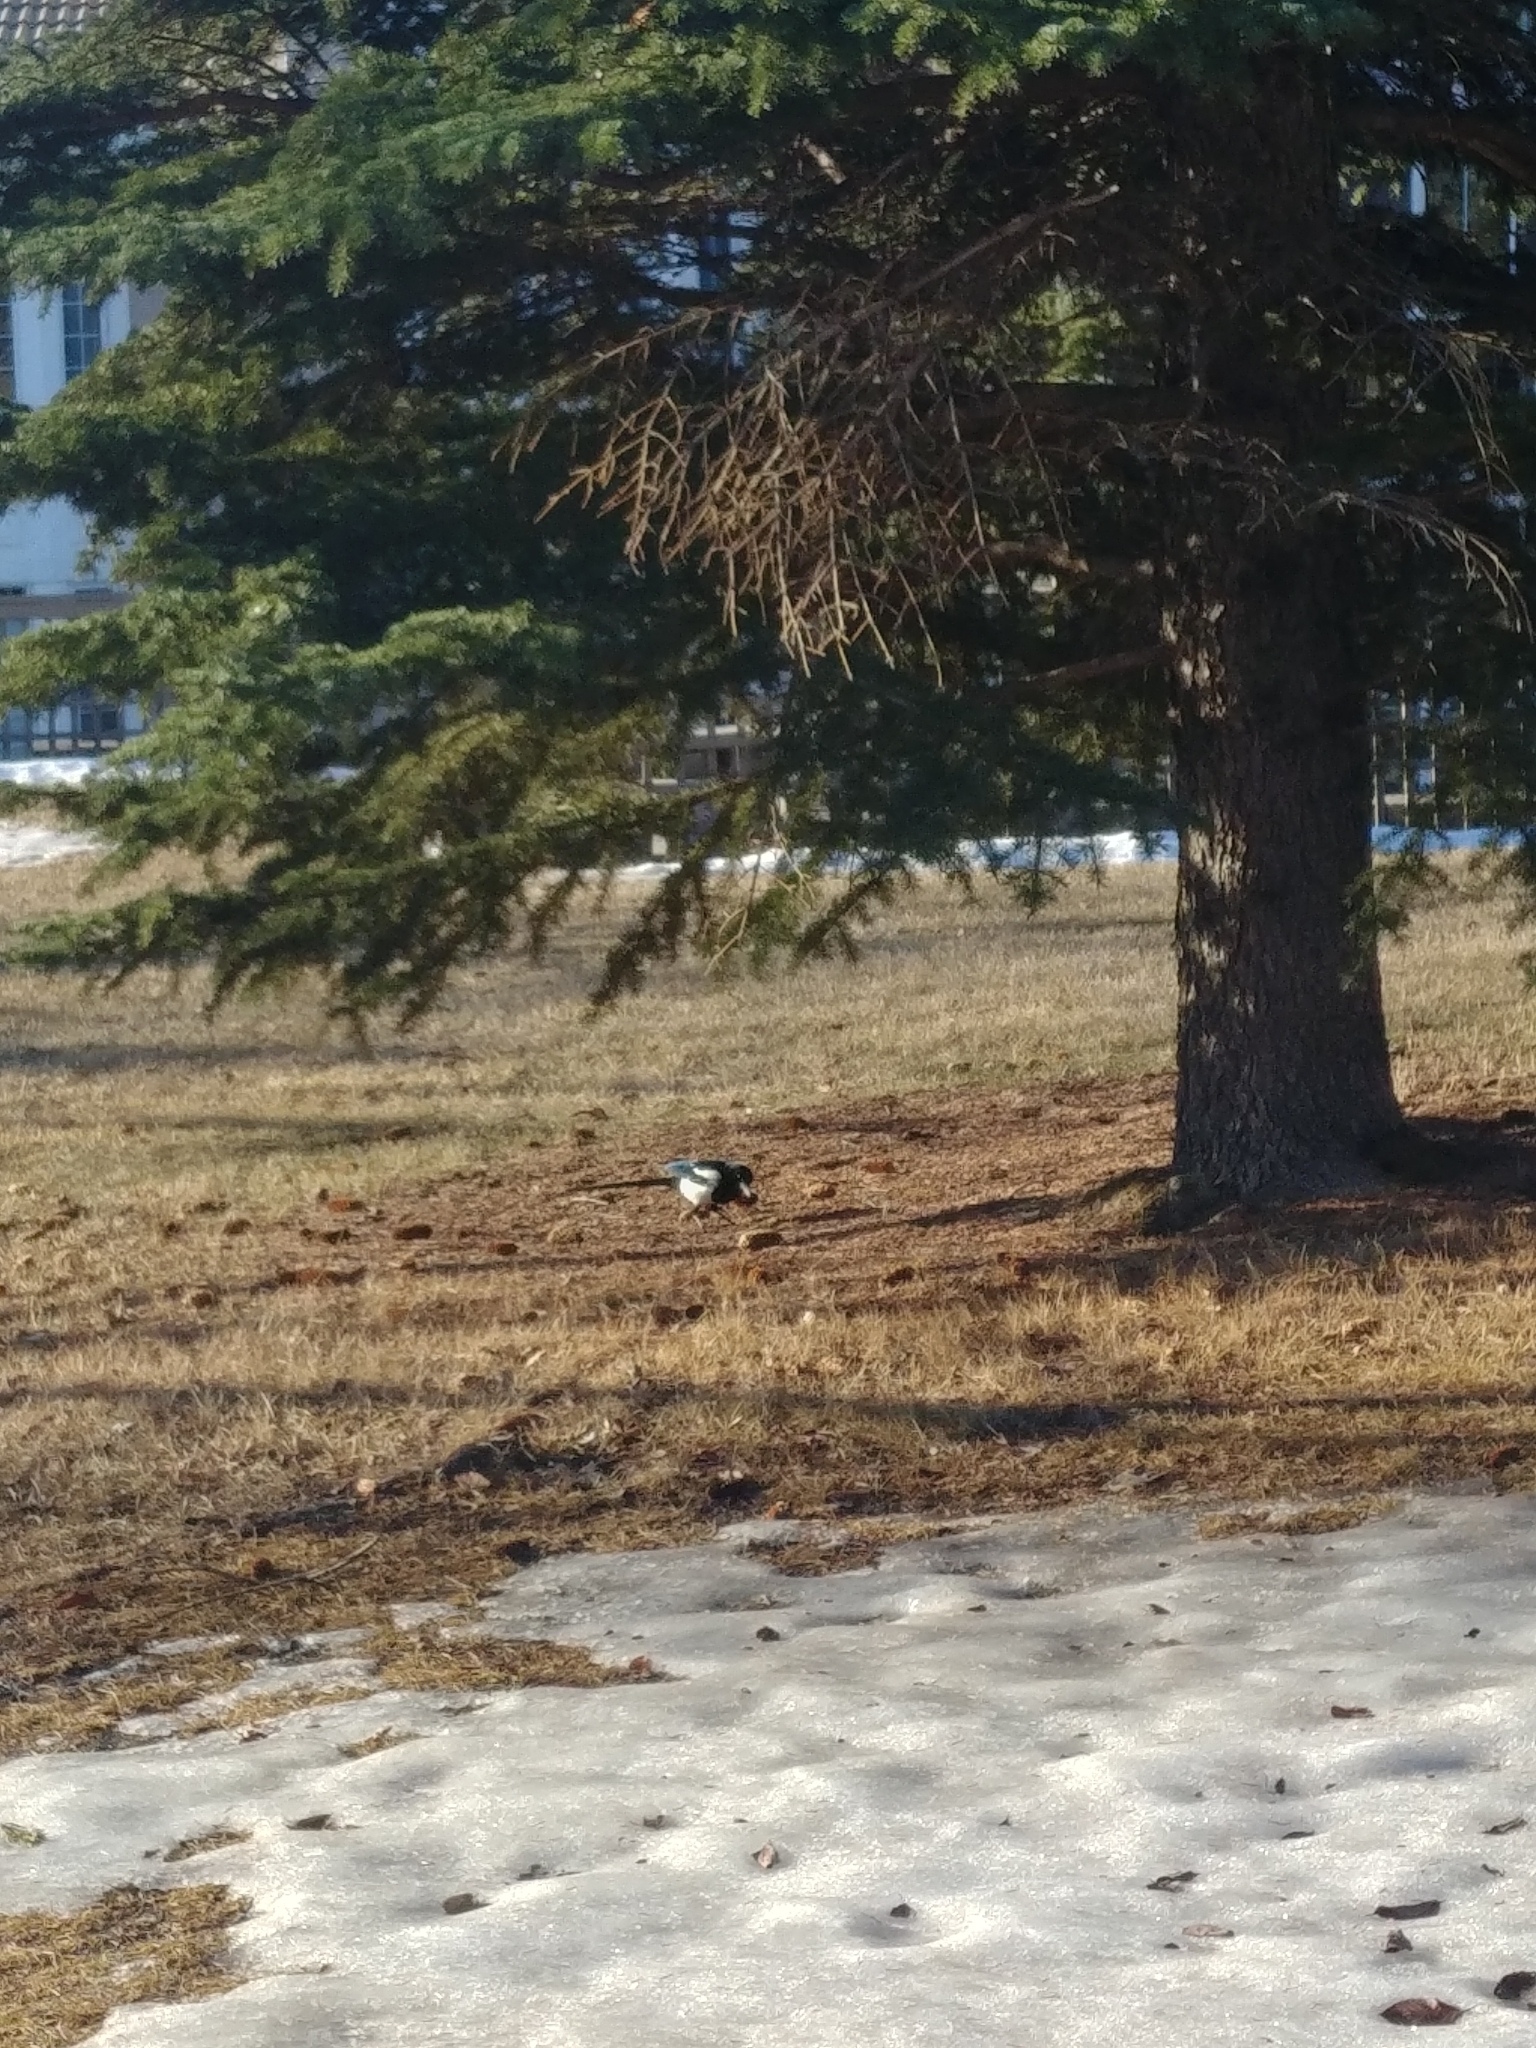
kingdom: Animalia
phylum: Chordata
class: Aves
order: Passeriformes
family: Corvidae
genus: Pica
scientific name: Pica hudsonia
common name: Black-billed magpie
